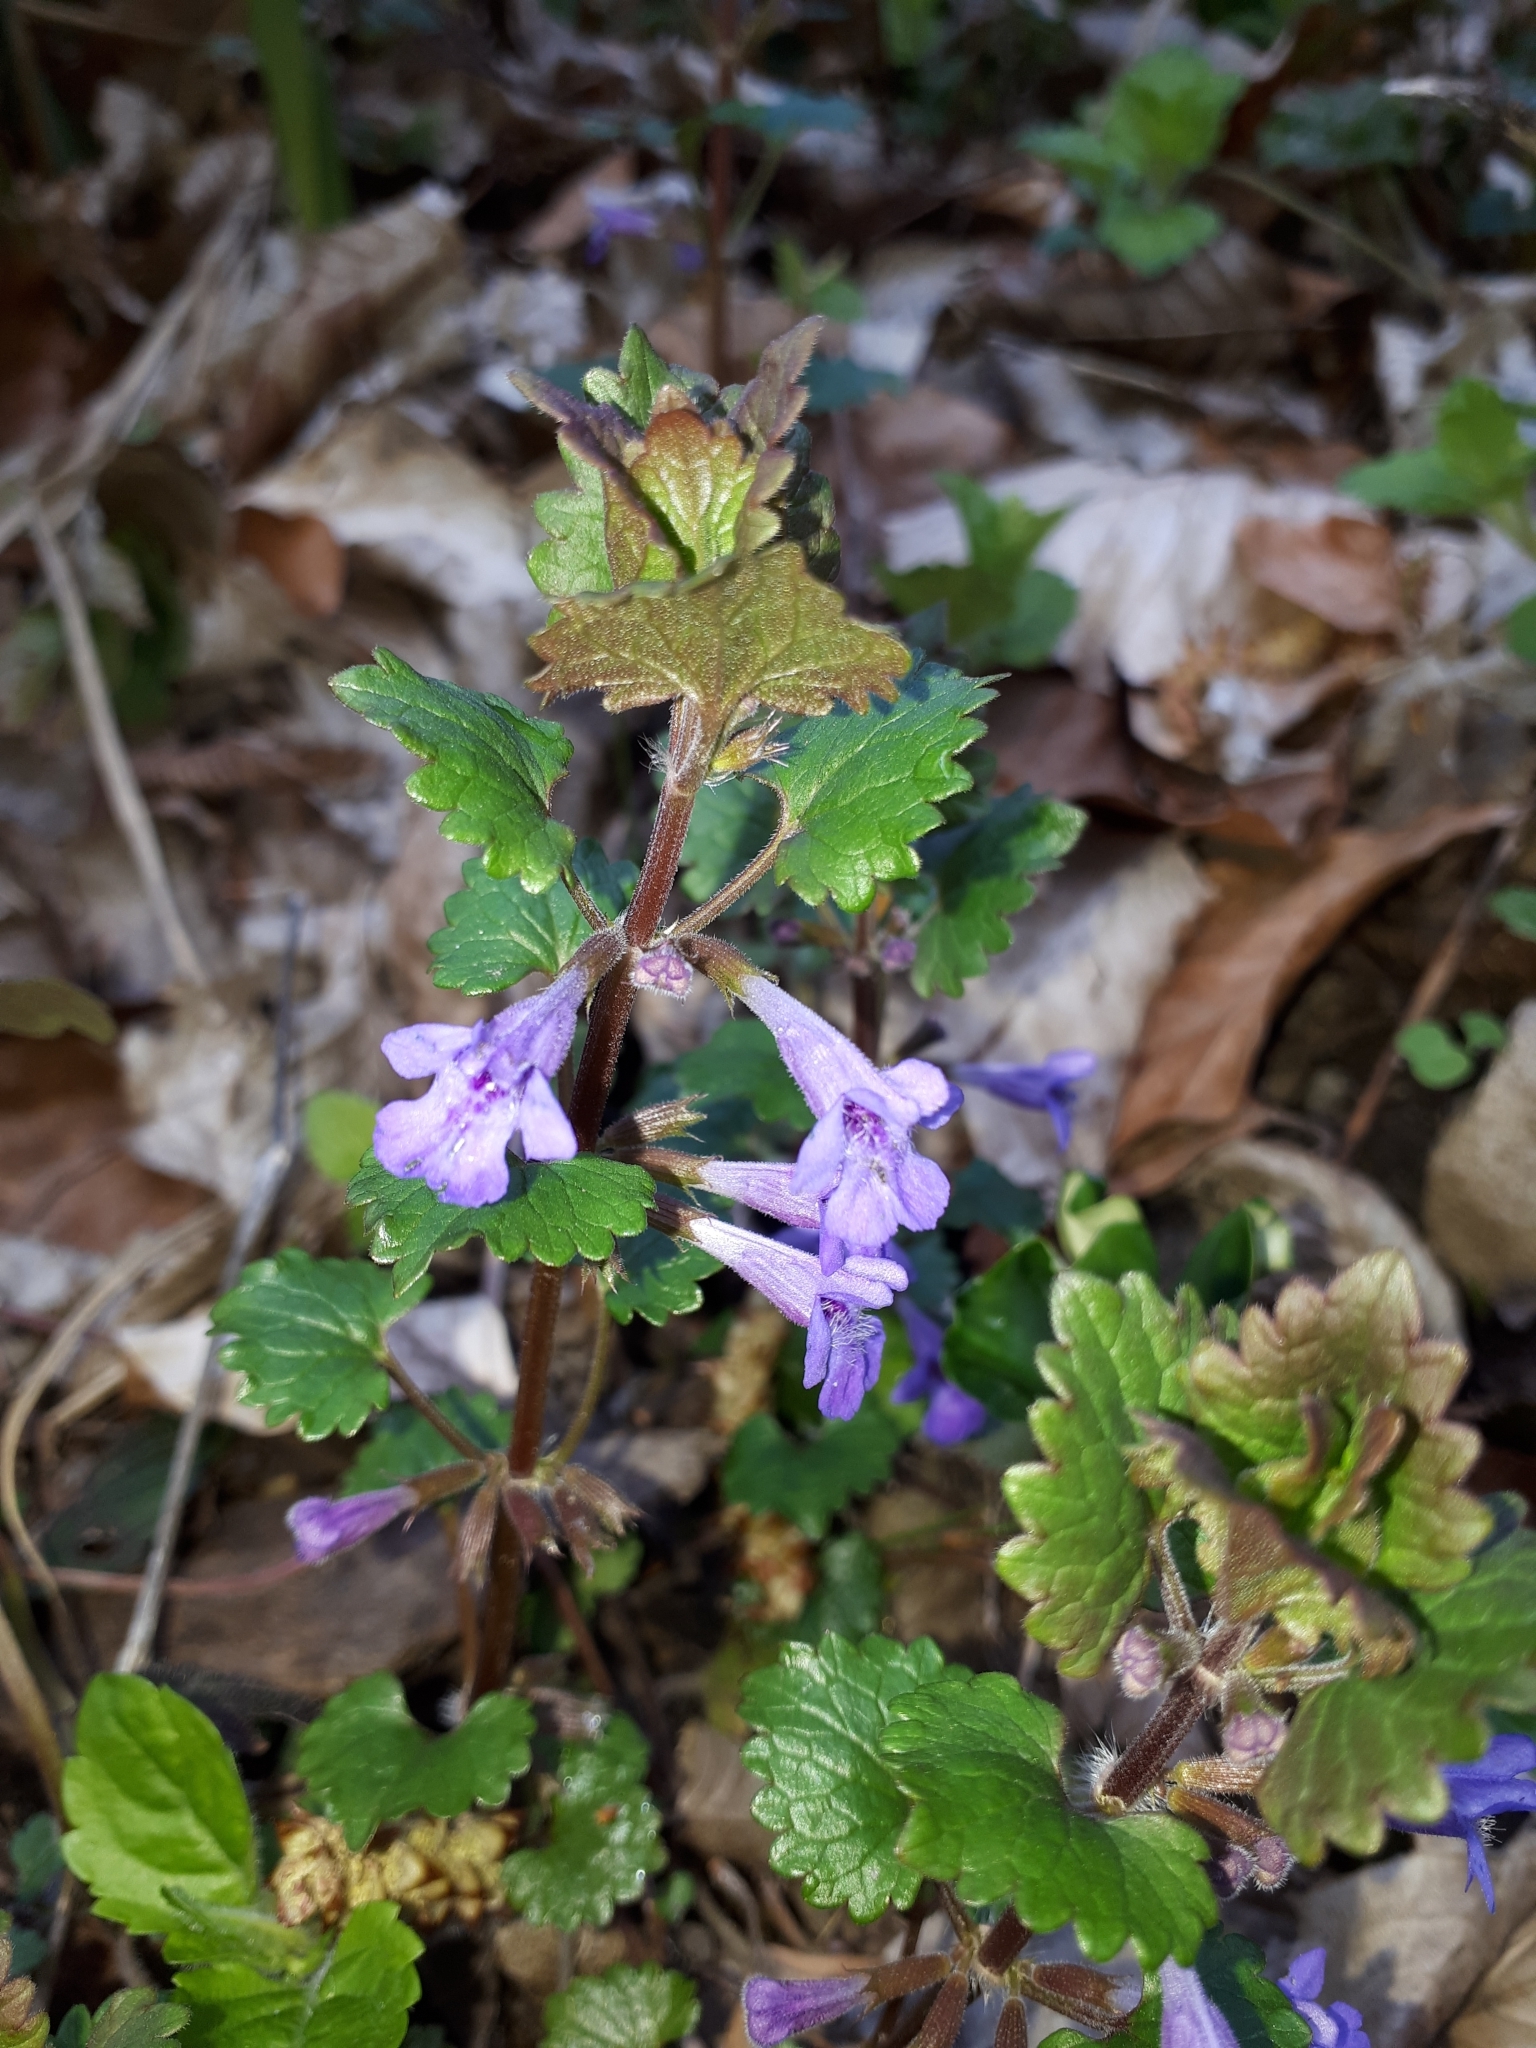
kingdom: Plantae
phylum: Tracheophyta
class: Magnoliopsida
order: Lamiales
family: Lamiaceae
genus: Glechoma
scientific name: Glechoma hederacea
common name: Ground ivy
